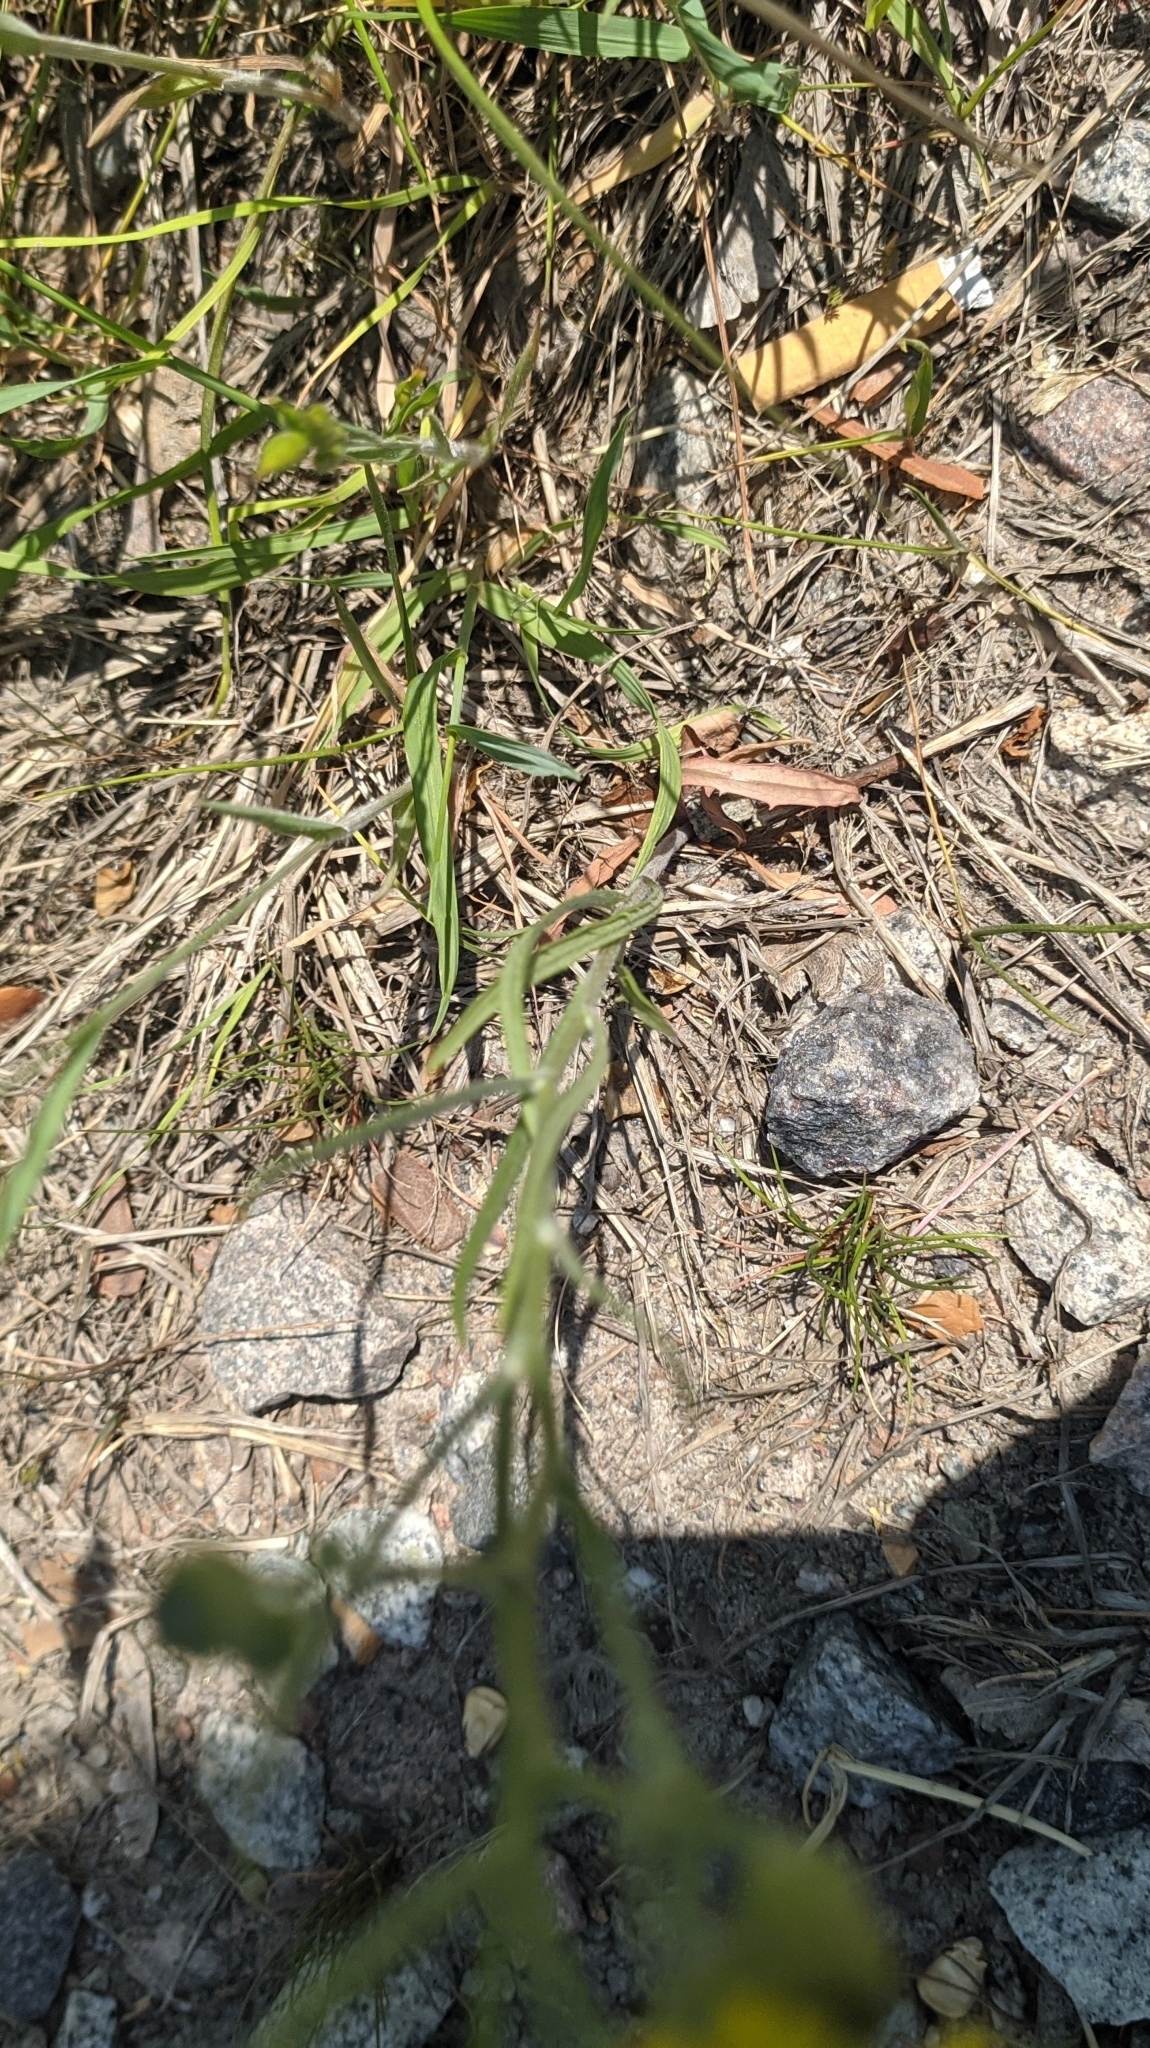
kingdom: Plantae
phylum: Tracheophyta
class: Magnoliopsida
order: Asterales
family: Asteraceae
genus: Crepis
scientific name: Crepis tectorum
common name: Narrow-leaved hawk's-beard
